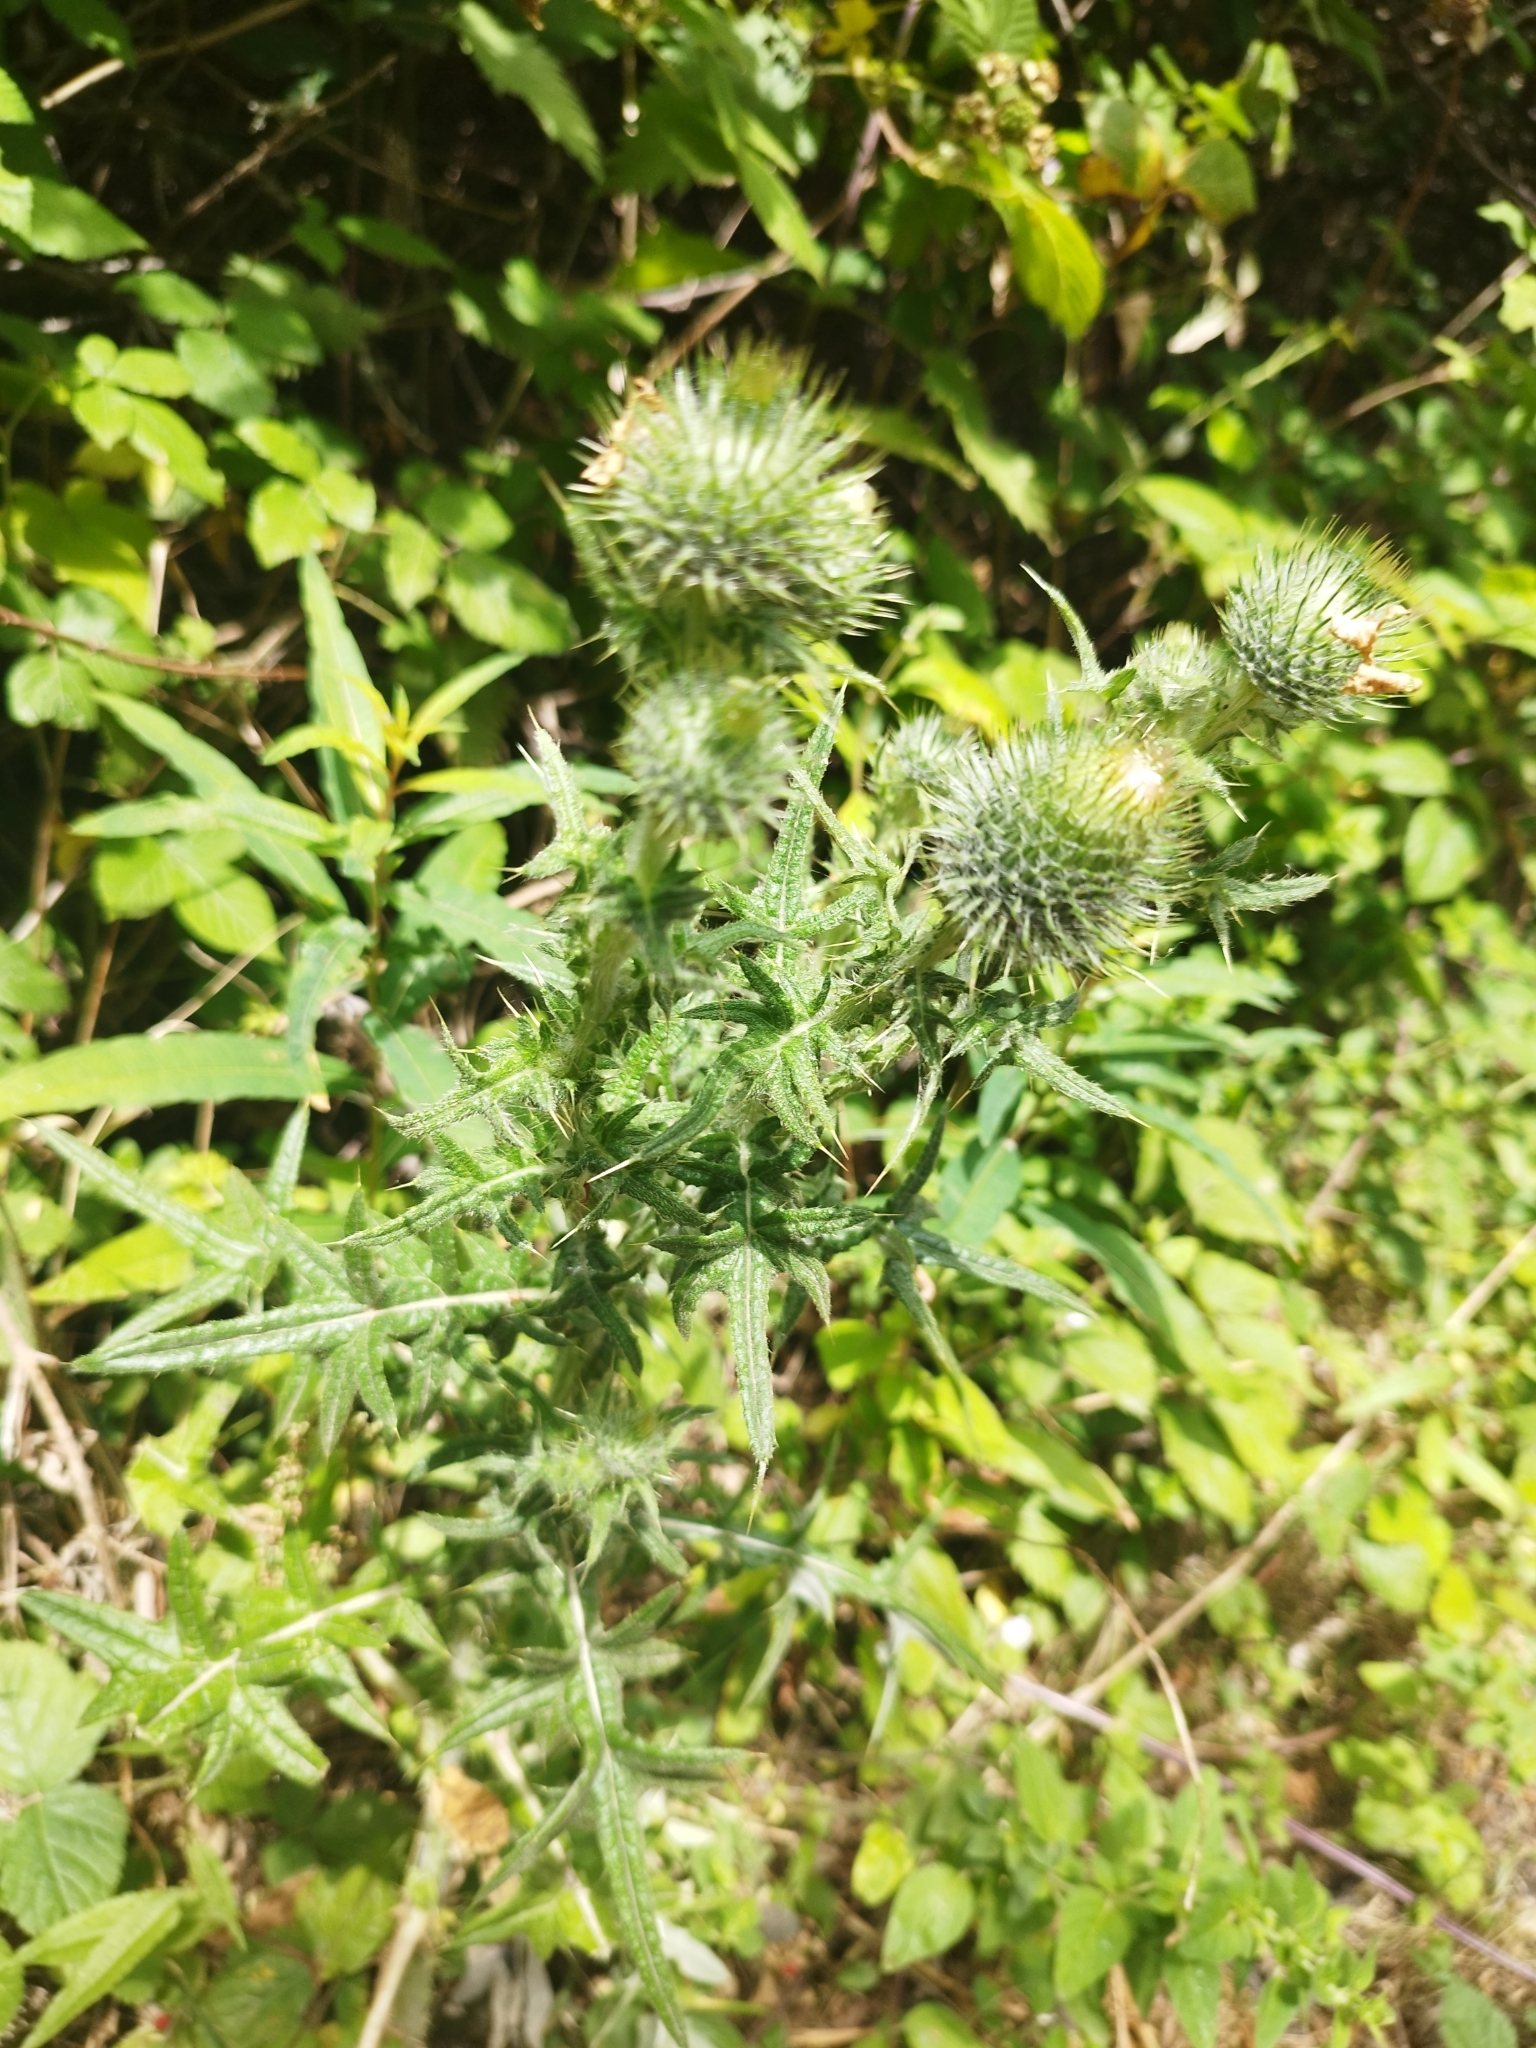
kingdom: Plantae
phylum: Tracheophyta
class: Magnoliopsida
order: Asterales
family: Asteraceae
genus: Cirsium
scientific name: Cirsium vulgare
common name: Bull thistle
